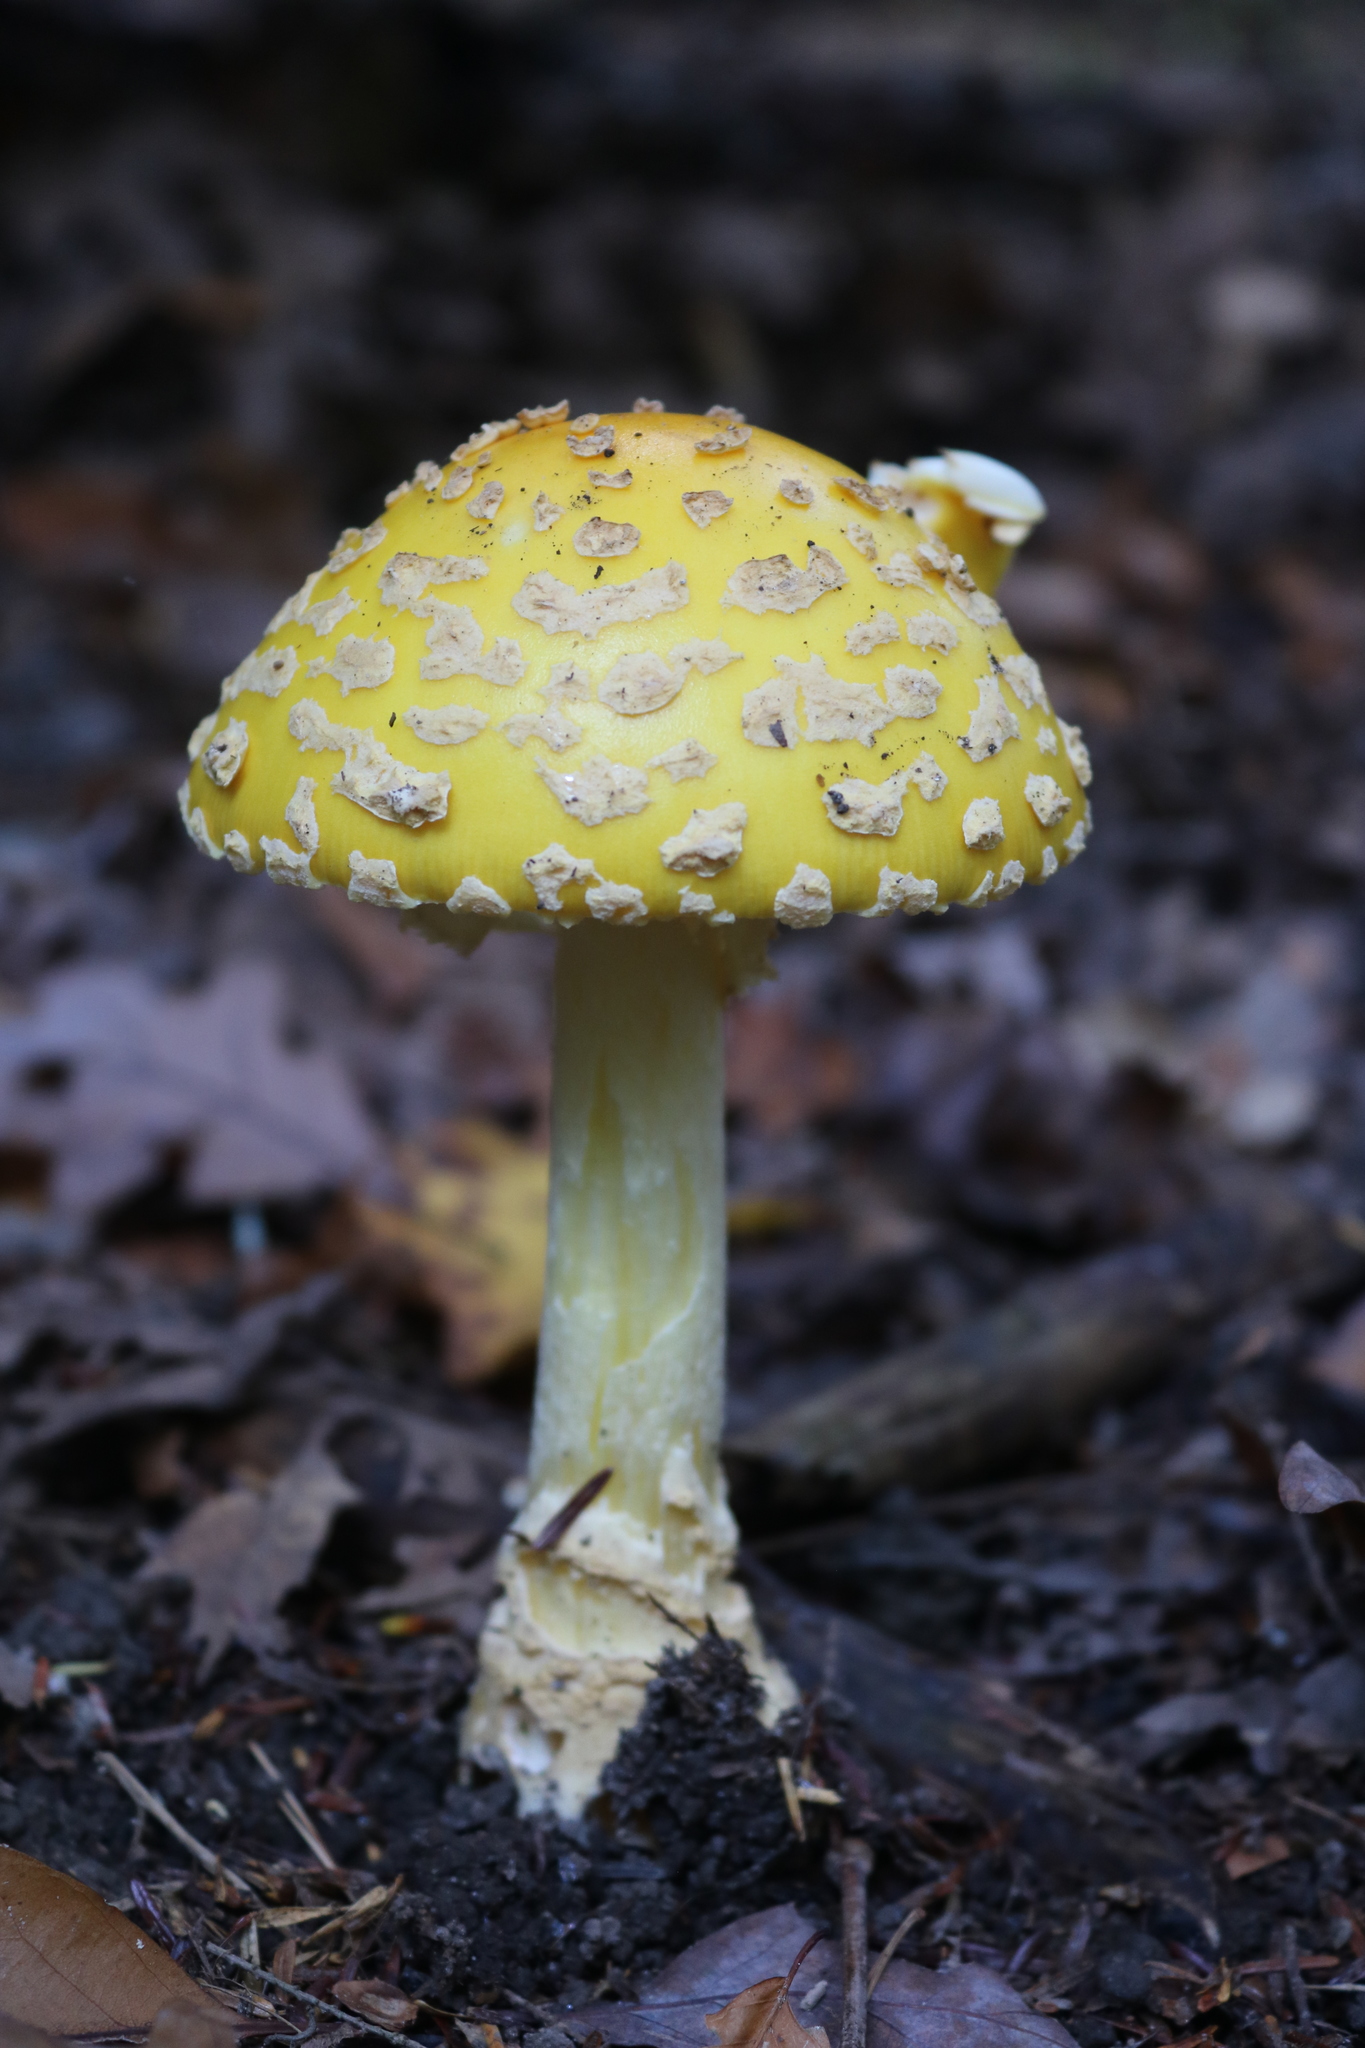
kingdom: Fungi
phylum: Basidiomycota
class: Agaricomycetes
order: Agaricales
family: Amanitaceae
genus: Amanita
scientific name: Amanita muscaria
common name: Fly agaric
